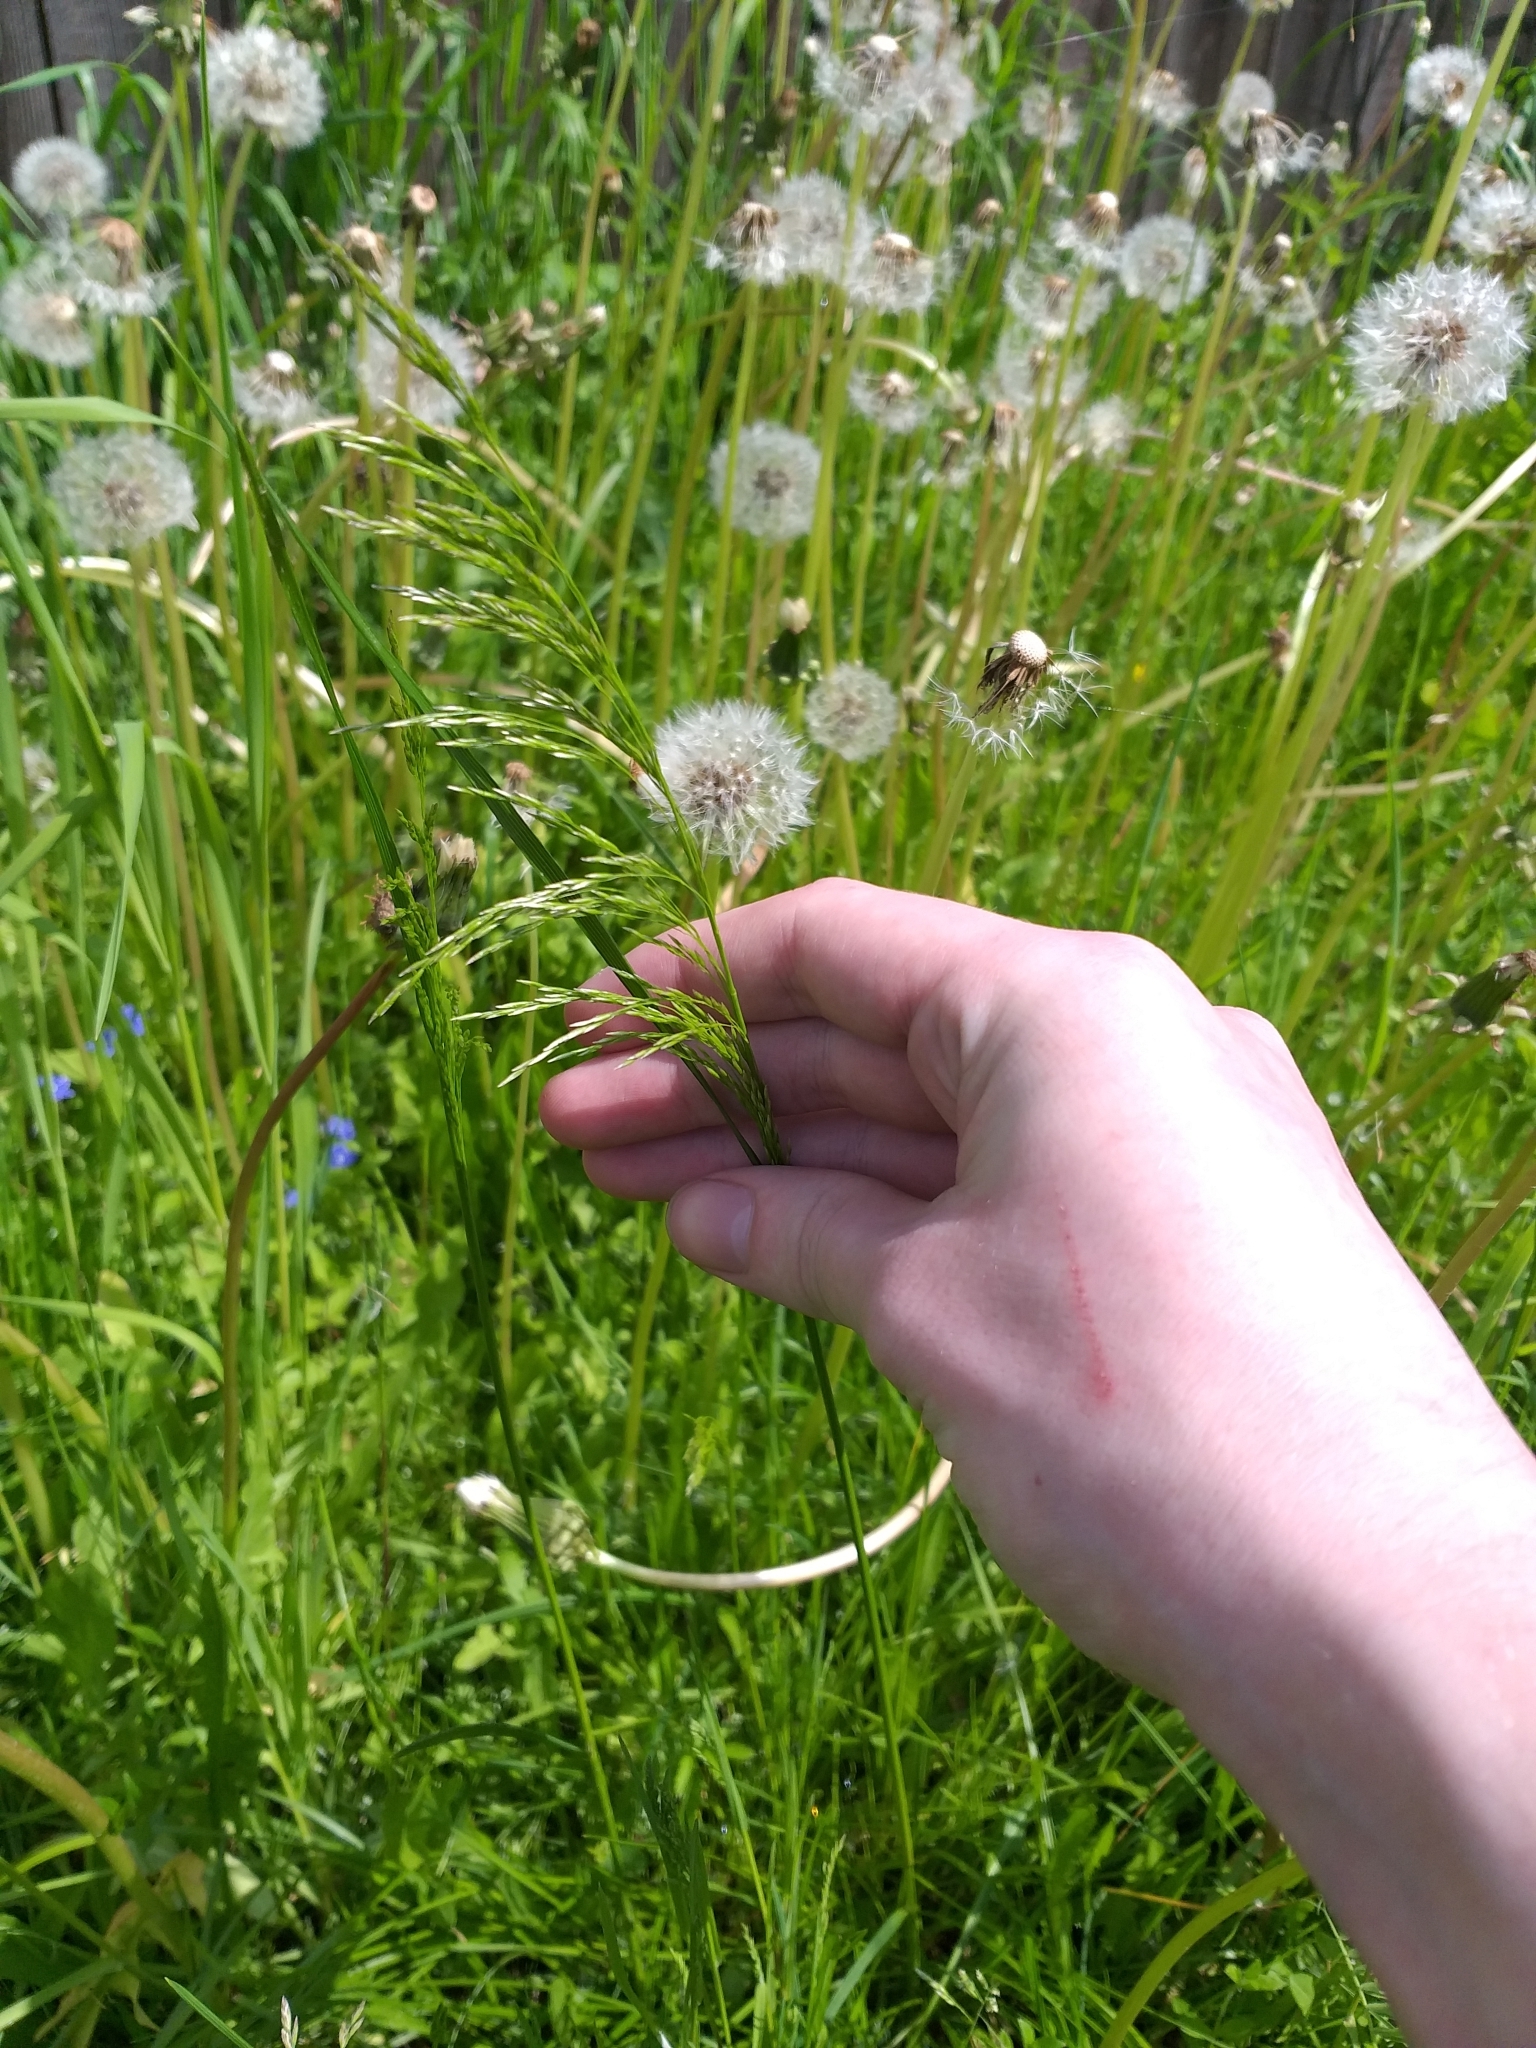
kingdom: Plantae
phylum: Tracheophyta
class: Liliopsida
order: Poales
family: Poaceae
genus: Deschampsia
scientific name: Deschampsia cespitosa
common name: Tufted hair-grass
